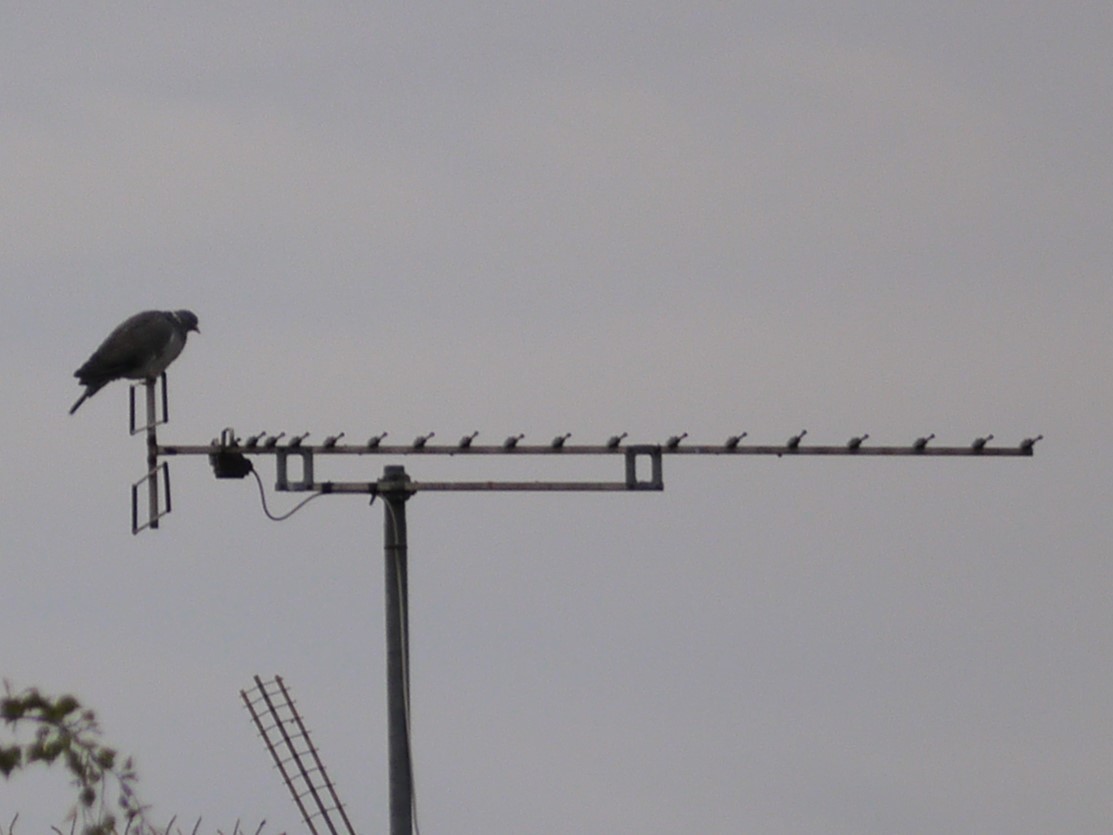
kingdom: Animalia
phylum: Chordata
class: Aves
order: Columbiformes
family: Columbidae
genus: Columba
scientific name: Columba palumbus
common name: Common wood pigeon
